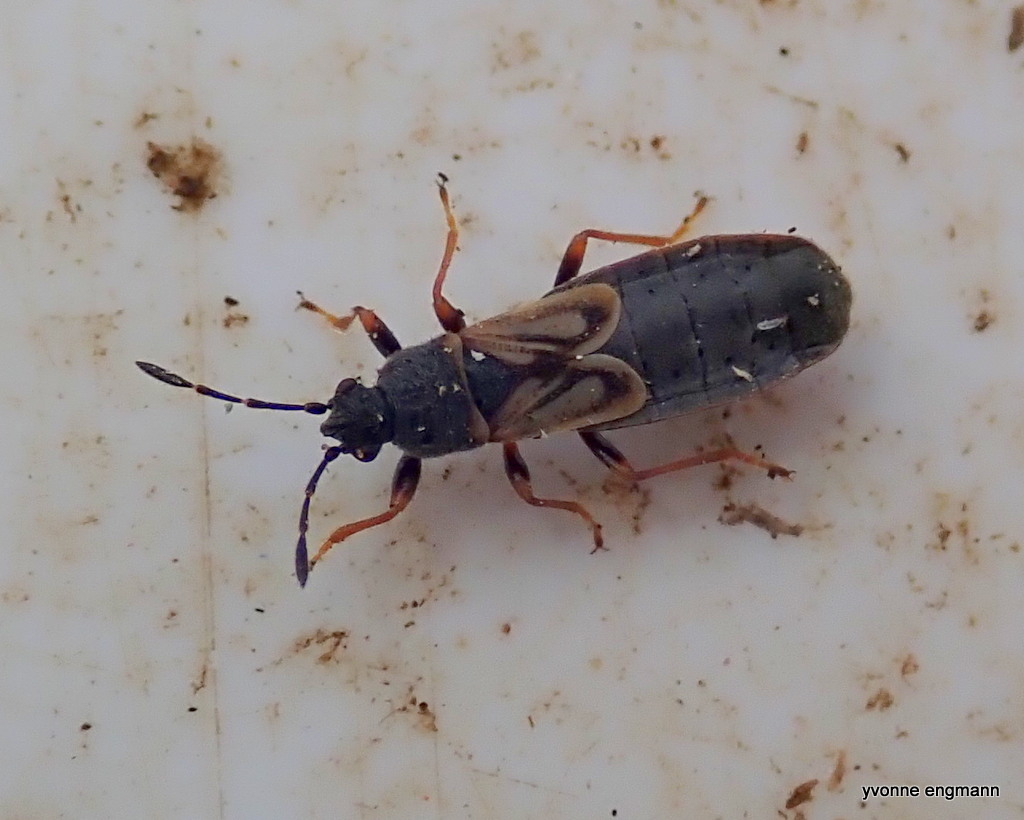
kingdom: Animalia
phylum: Arthropoda
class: Insecta
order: Hemiptera
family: Blissidae
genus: Ischnodemus
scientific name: Ischnodemus sabuleti
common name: European cinchbug
